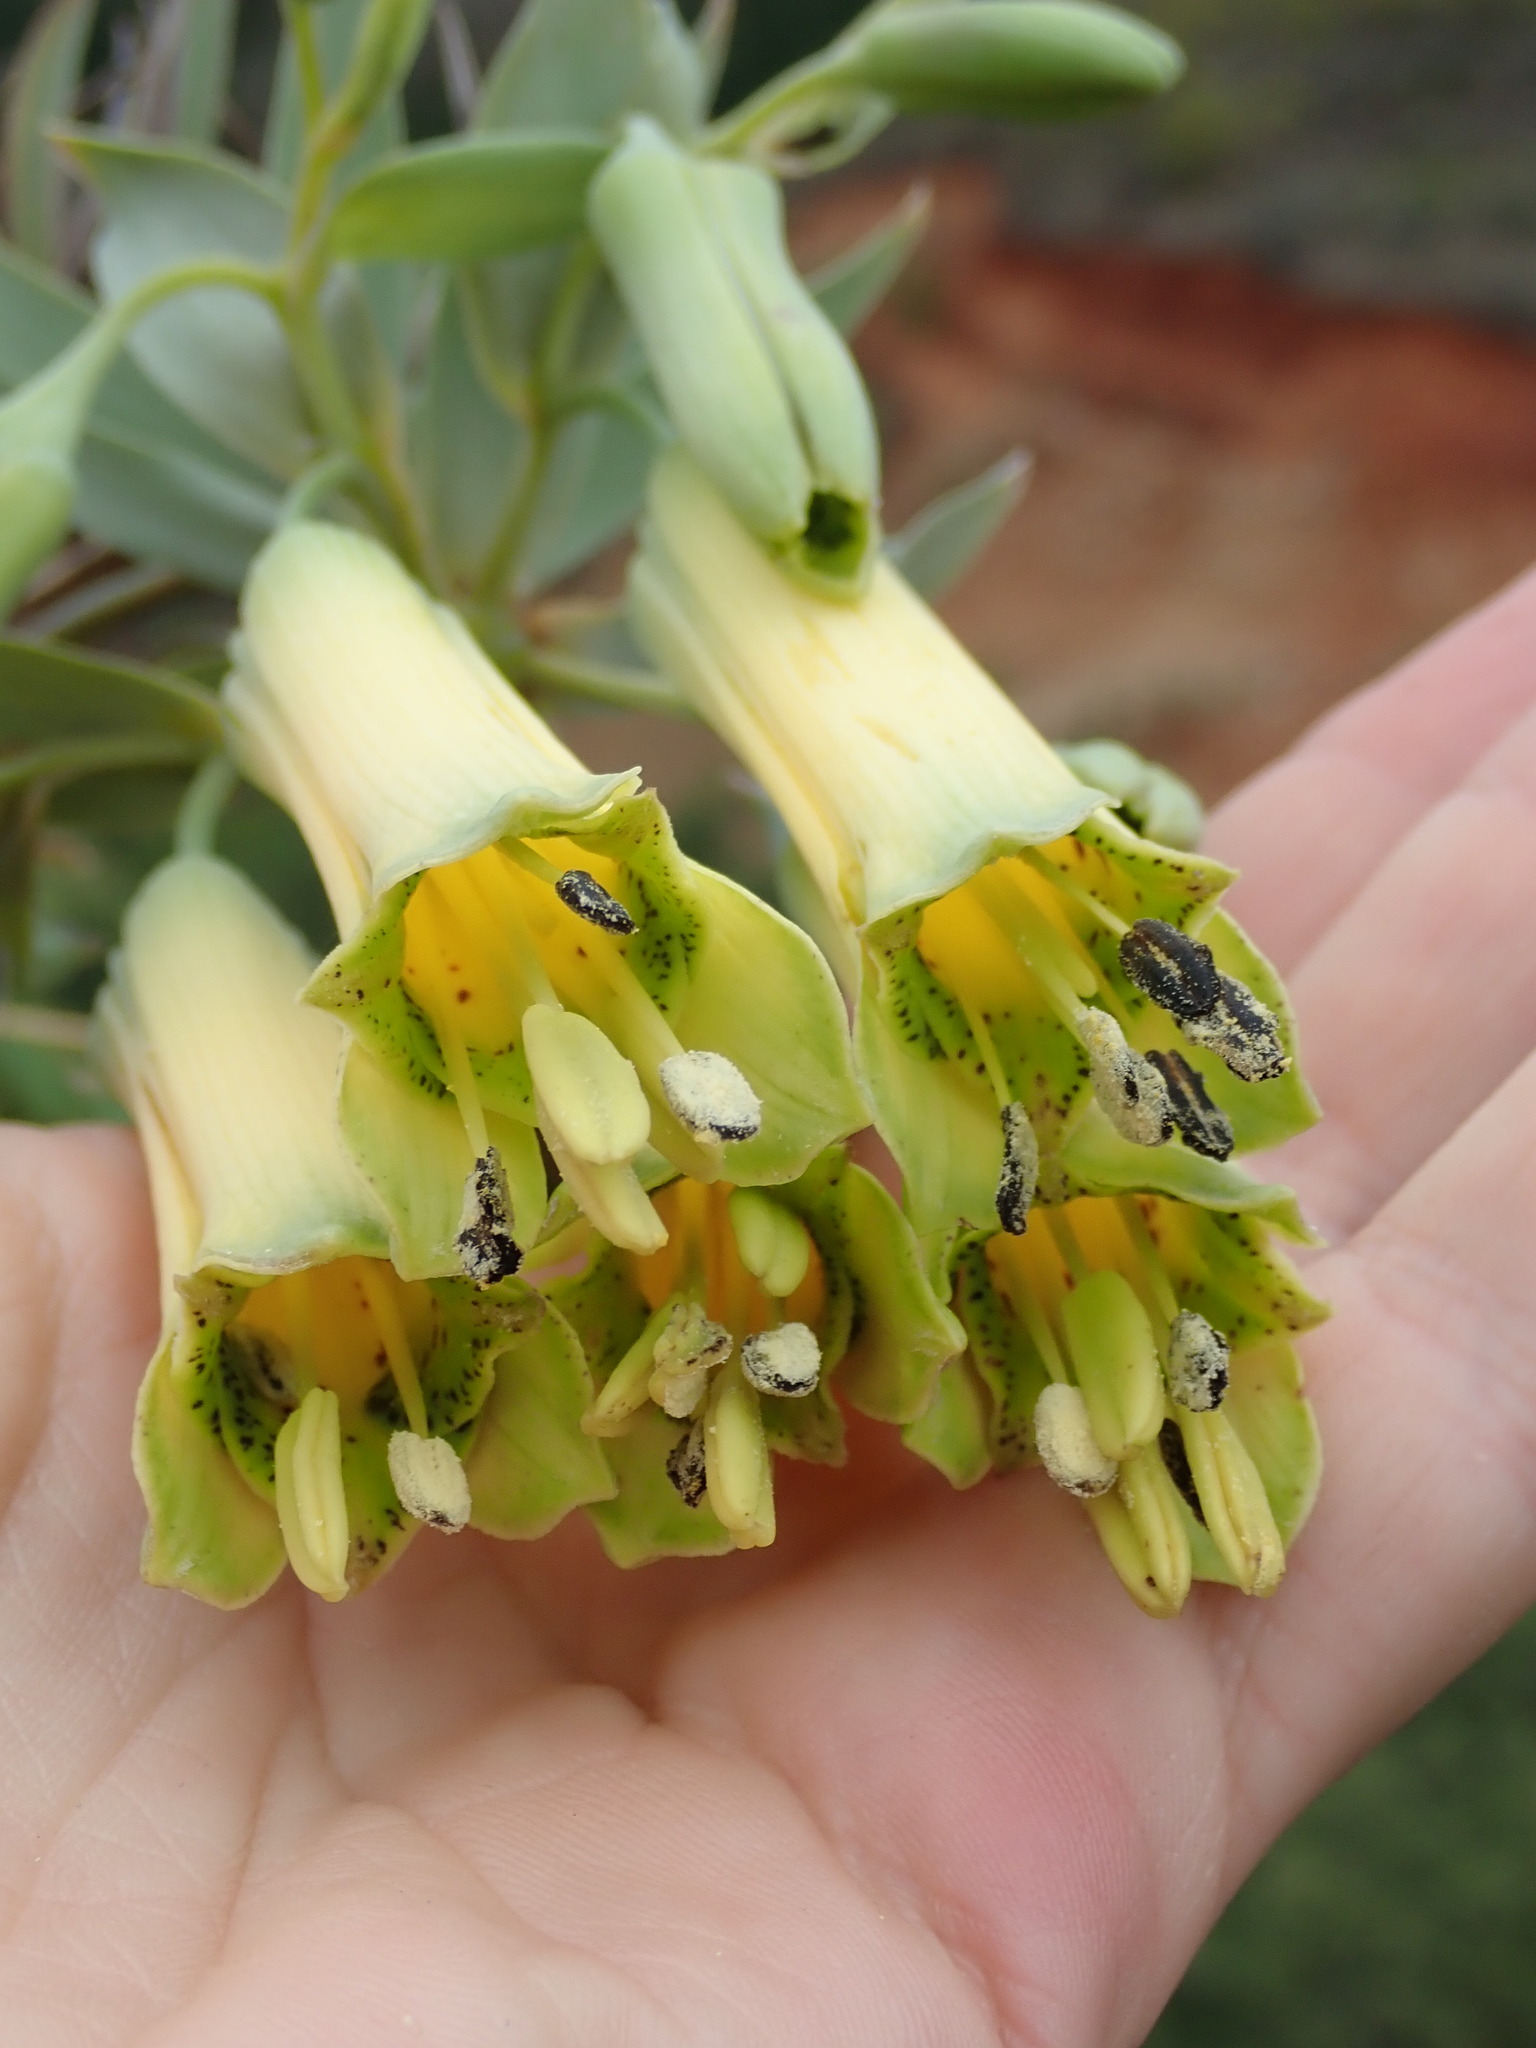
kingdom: Plantae
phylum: Tracheophyta
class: Liliopsida
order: Liliales
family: Alstroemeriaceae
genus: Bomarea
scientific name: Bomarea involucrosa
